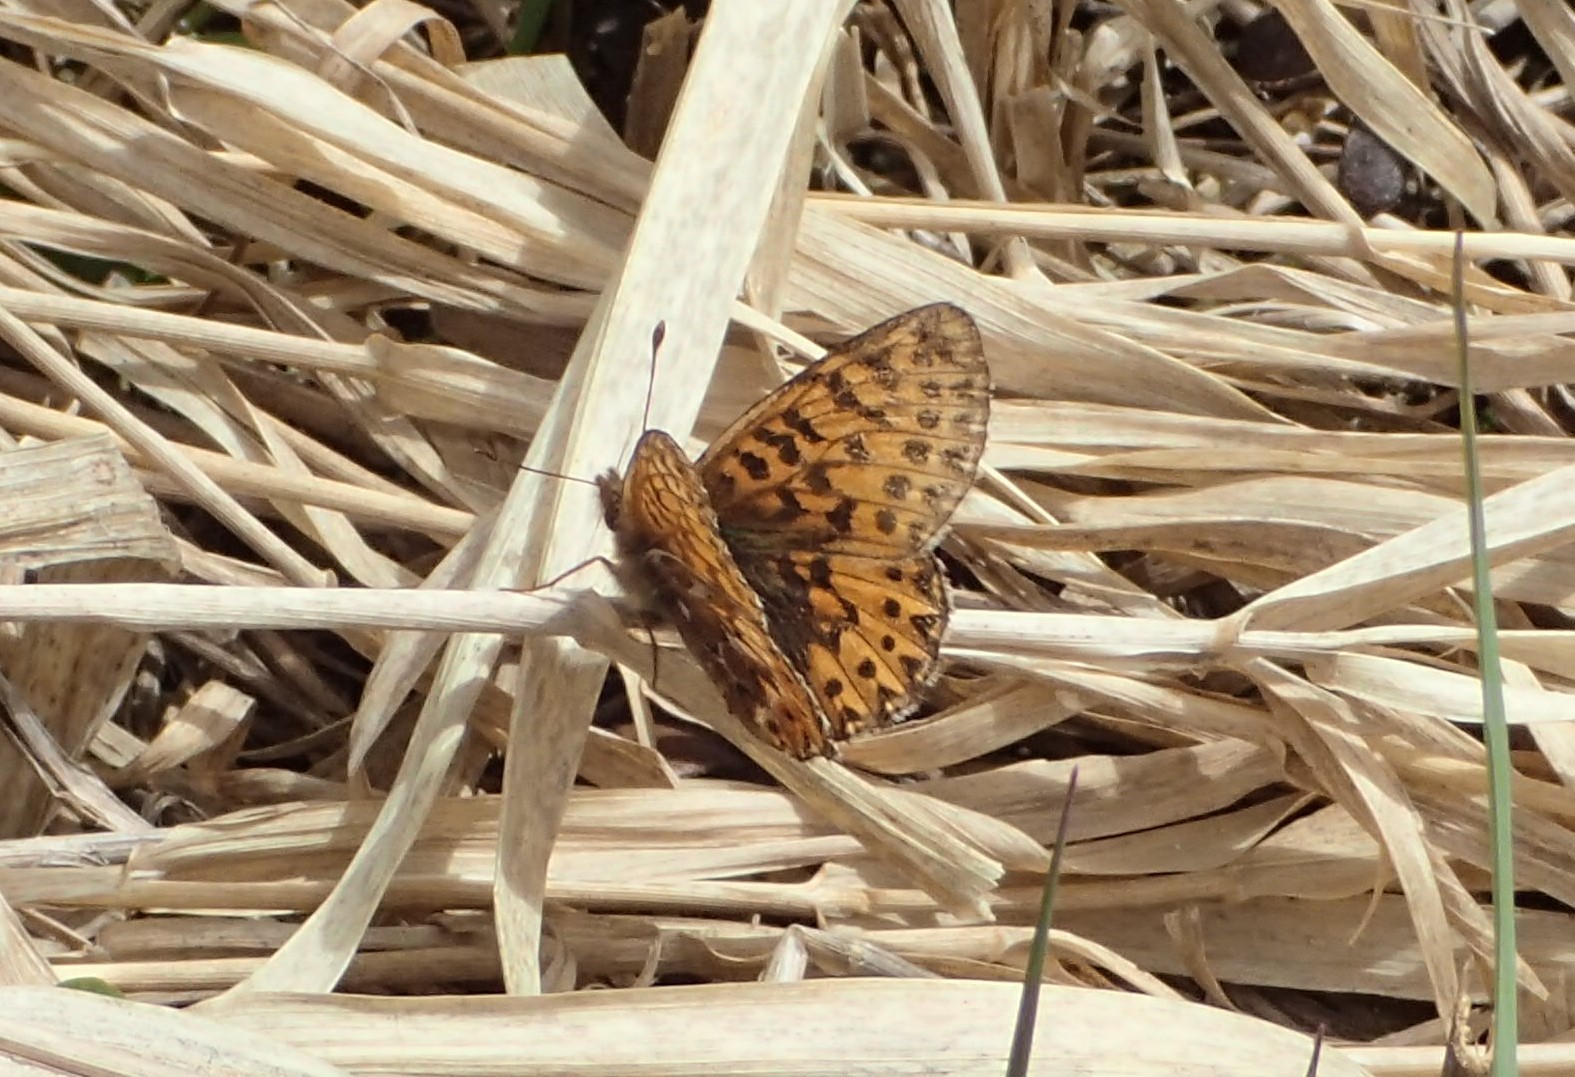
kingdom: Animalia
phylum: Arthropoda
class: Insecta
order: Lepidoptera
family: Nymphalidae
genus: Boloria
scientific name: Boloria freija
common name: Freija fritillary
